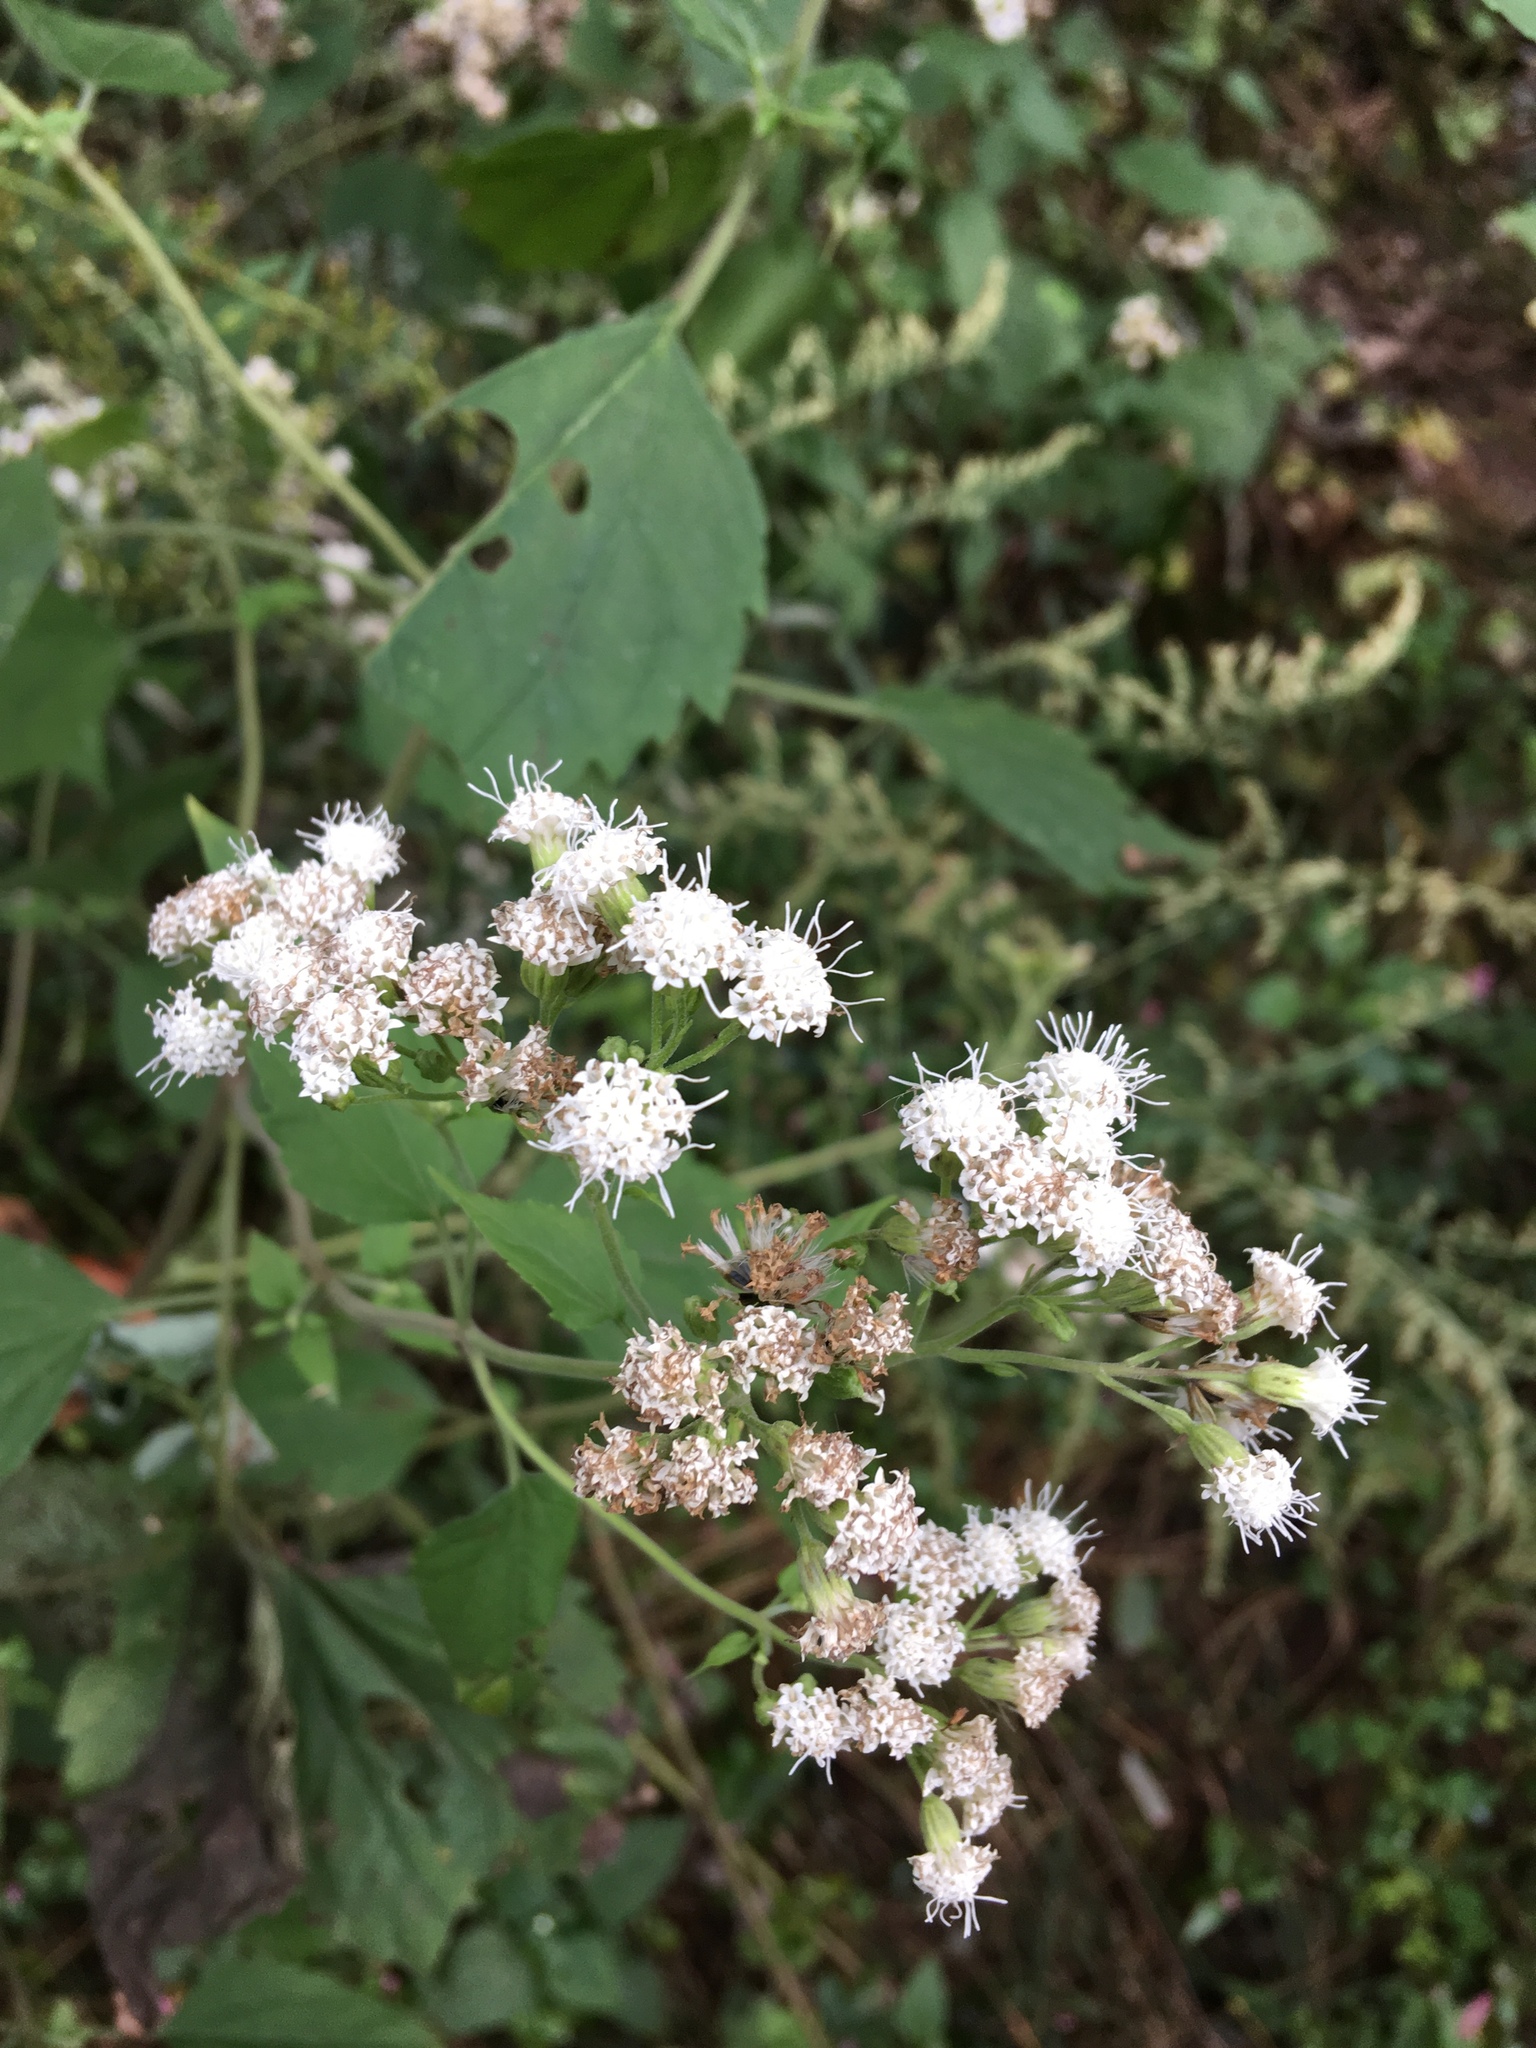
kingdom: Plantae
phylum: Tracheophyta
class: Magnoliopsida
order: Asterales
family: Asteraceae
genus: Ageratina
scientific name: Ageratina altissima
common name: White snakeroot
